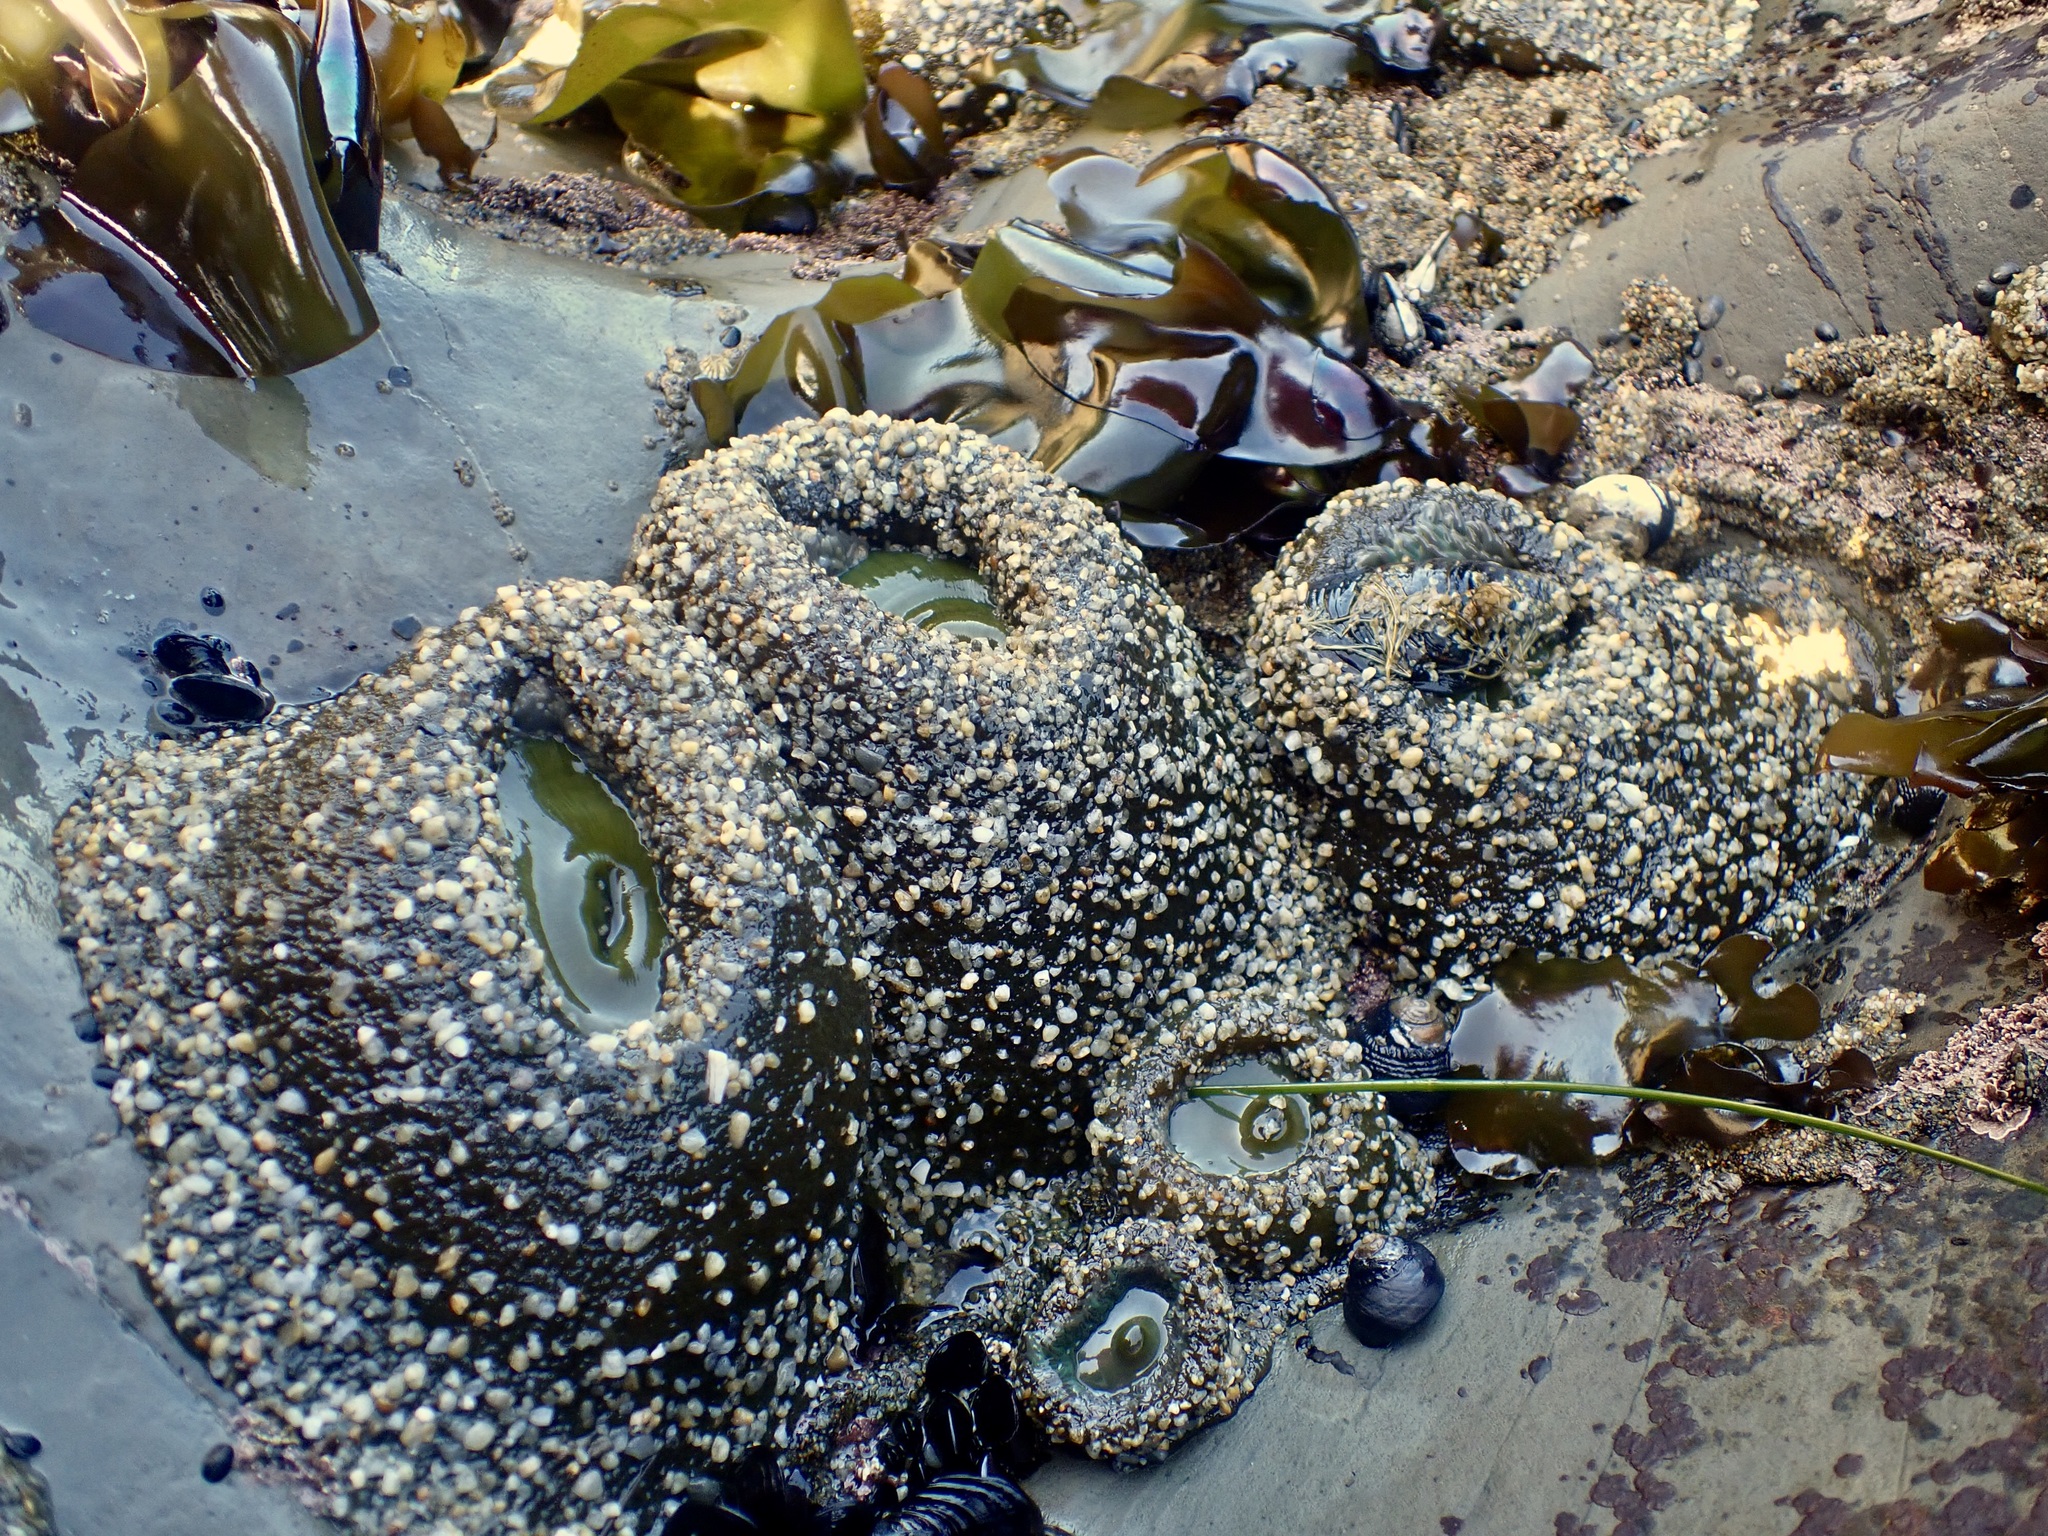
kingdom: Animalia
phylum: Cnidaria
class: Anthozoa
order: Actiniaria
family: Actiniidae
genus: Anthopleura
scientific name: Anthopleura xanthogrammica
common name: Giant green anemone
